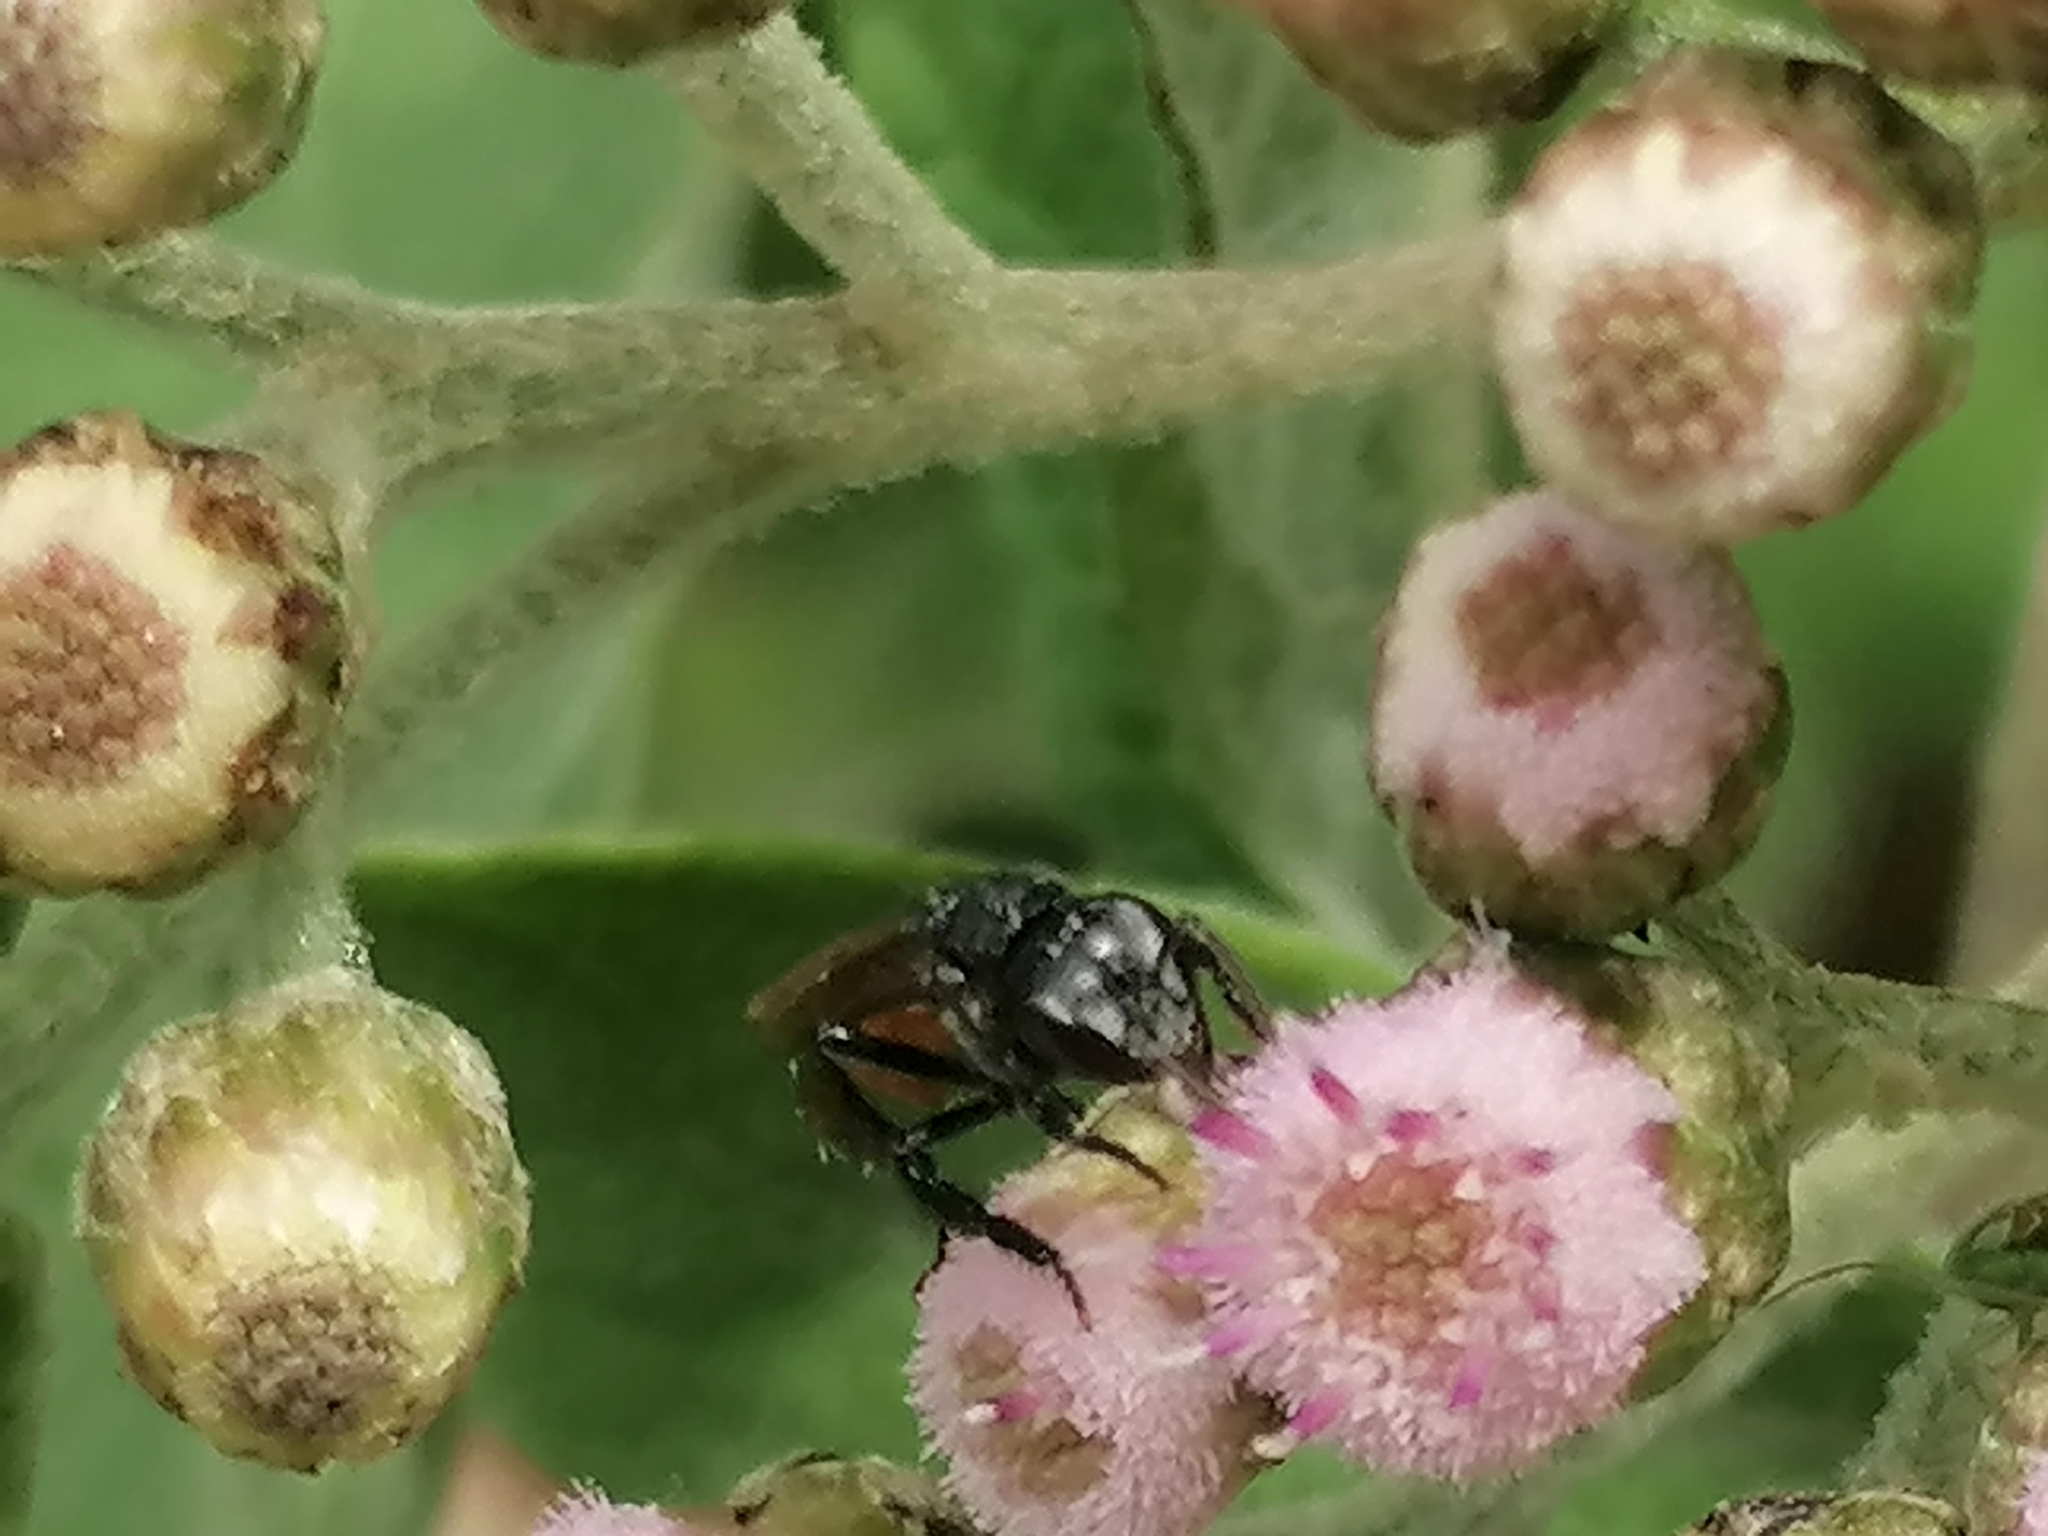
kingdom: Animalia
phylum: Arthropoda
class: Insecta
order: Hymenoptera
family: Apidae
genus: Trigona
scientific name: Trigona fulviventris
